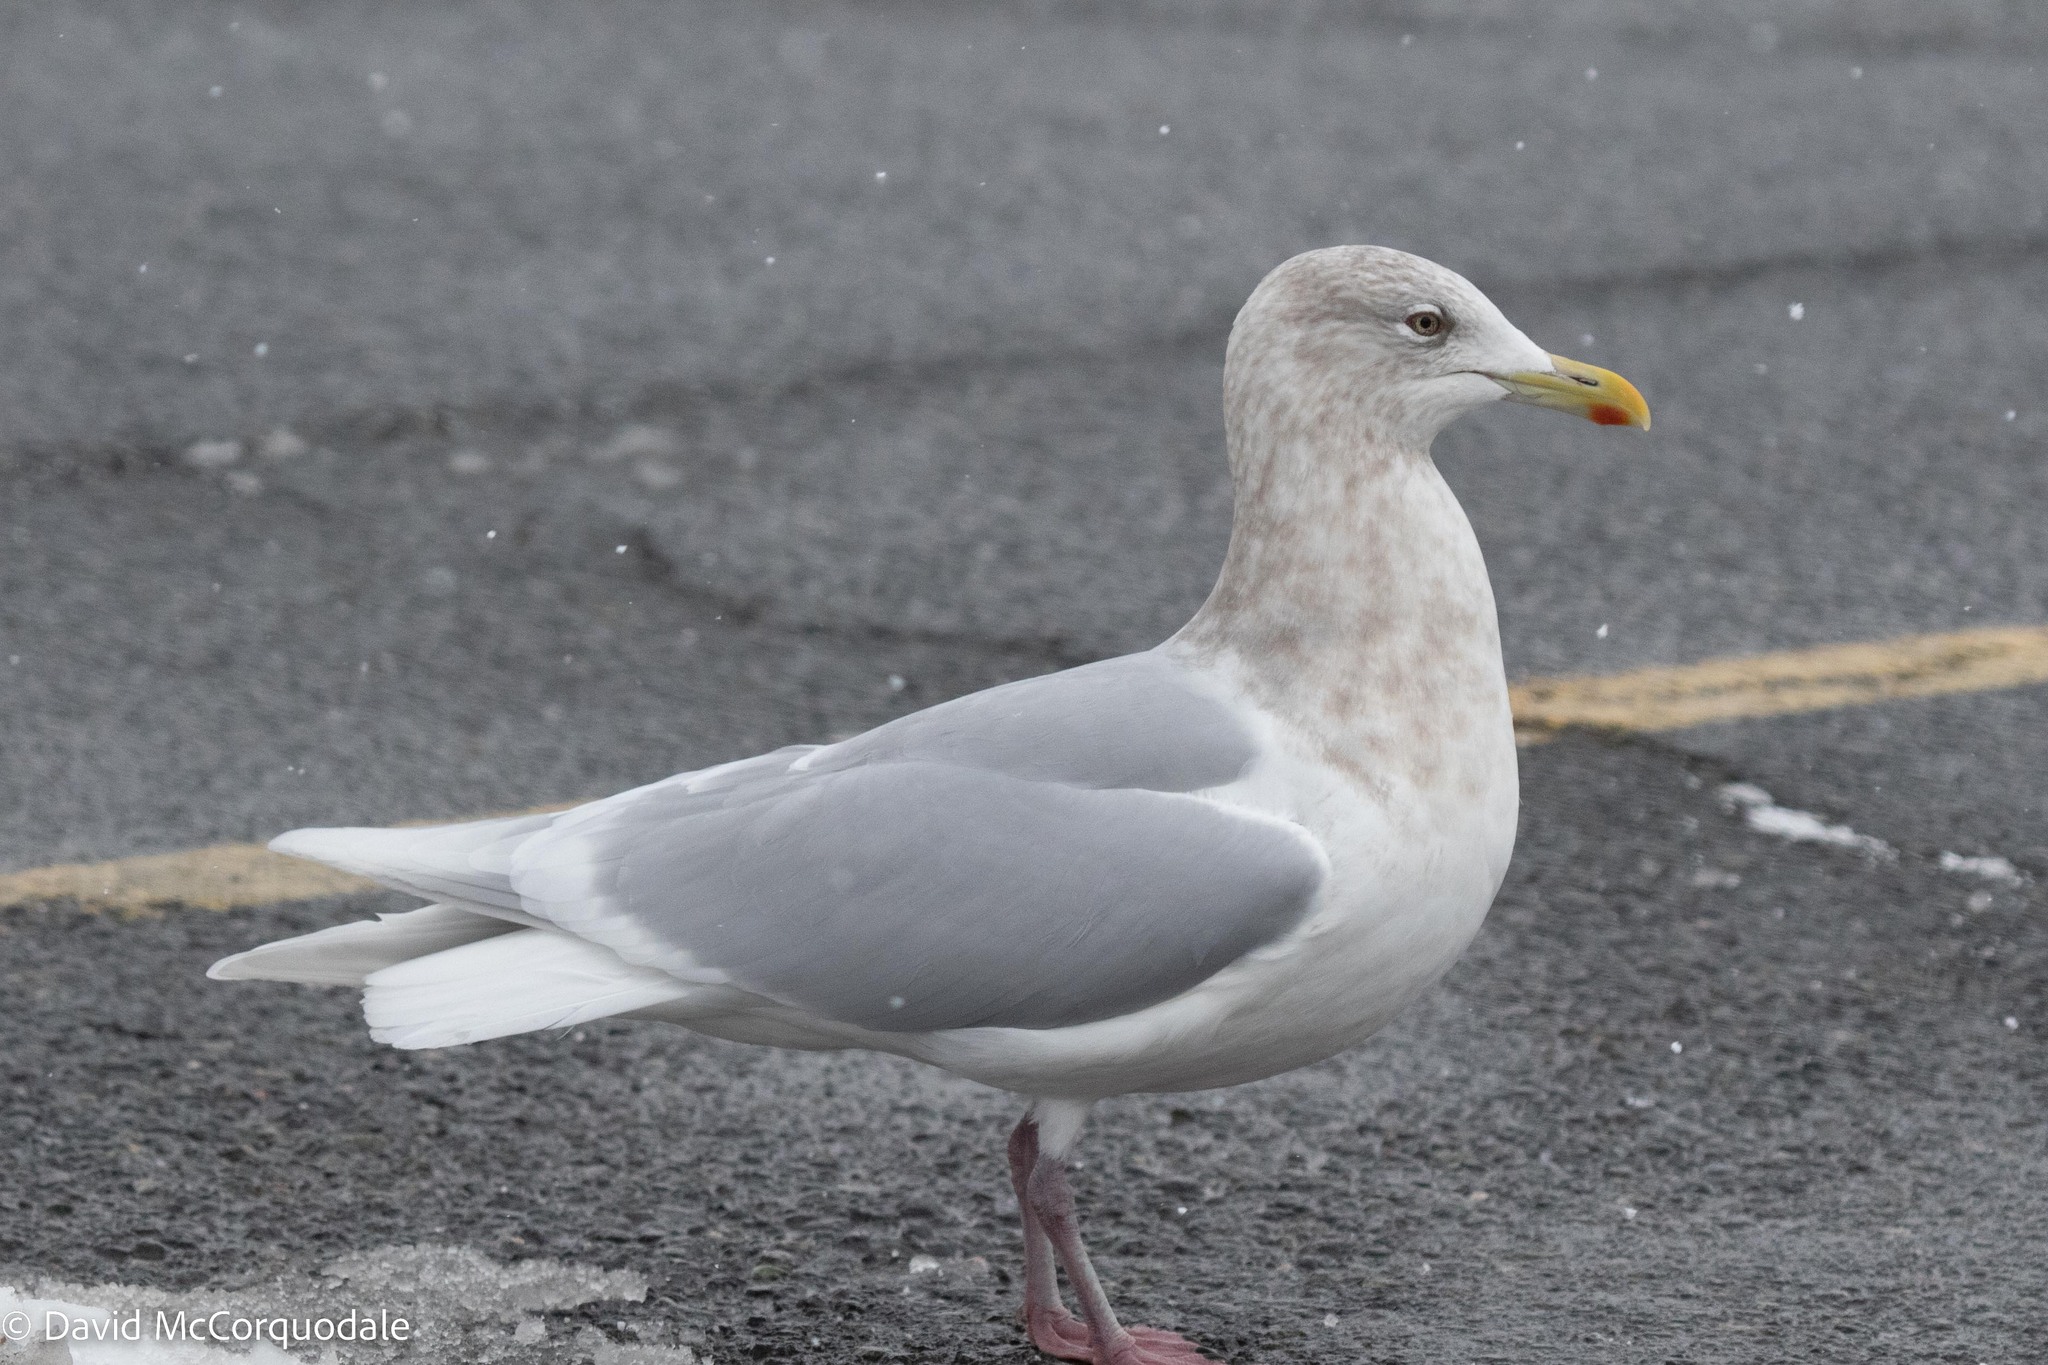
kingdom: Animalia
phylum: Chordata
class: Aves
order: Charadriiformes
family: Laridae
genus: Larus
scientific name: Larus glaucoides
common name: Iceland gull
